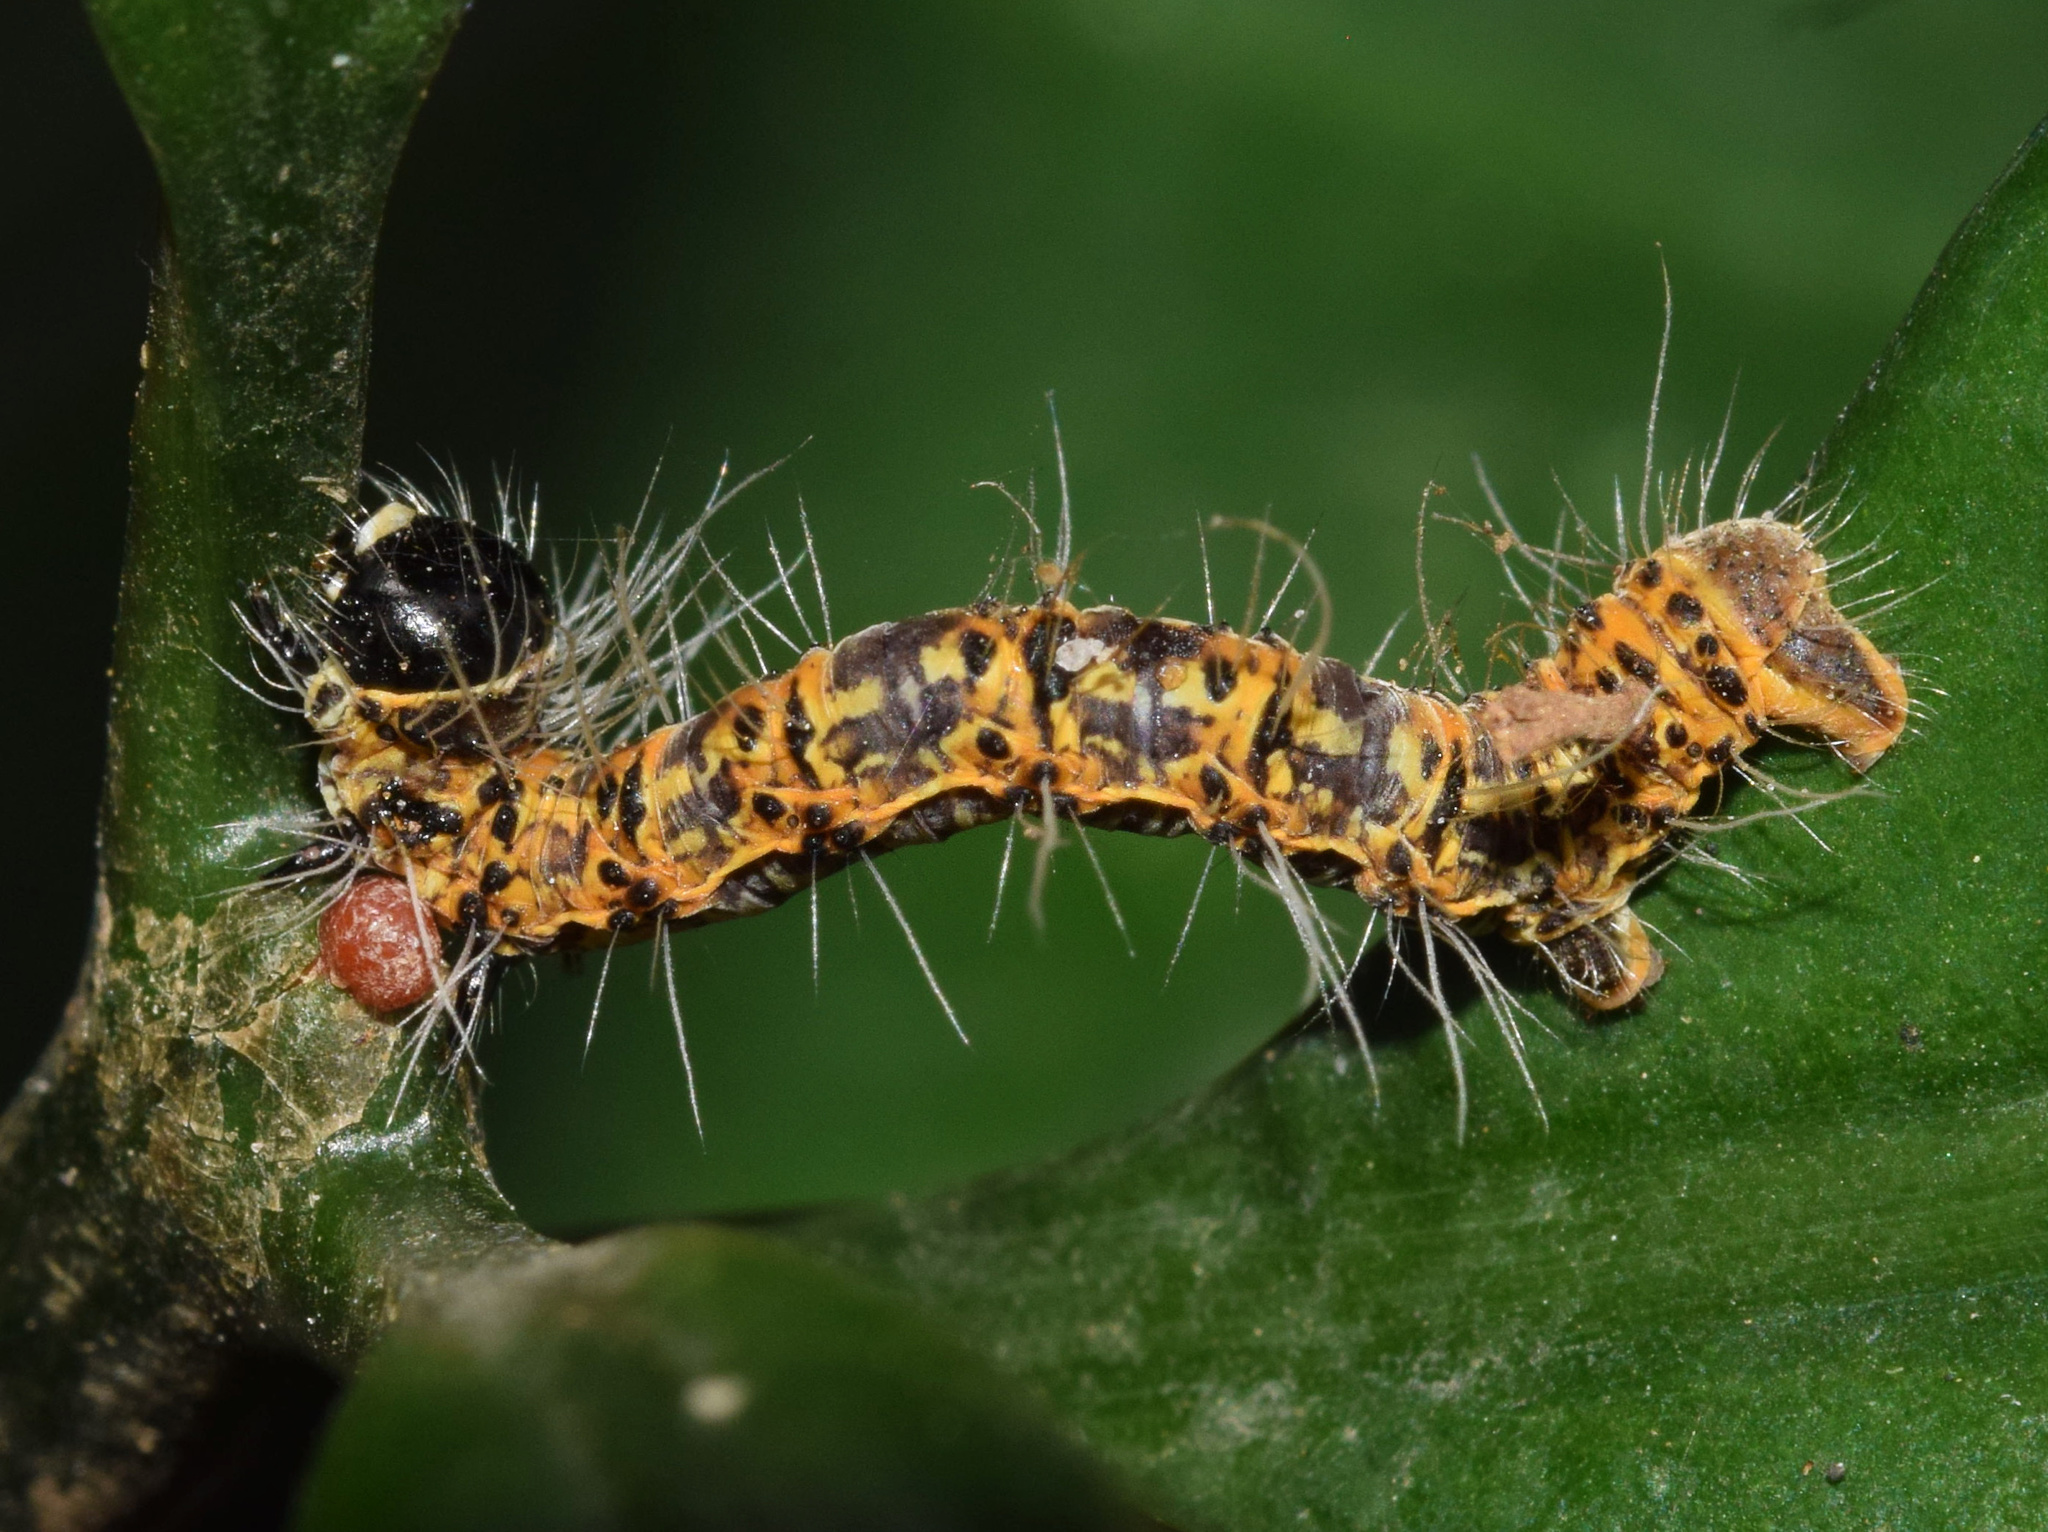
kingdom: Animalia
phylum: Arthropoda
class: Insecta
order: Lepidoptera
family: Geometridae
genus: Zerenopsis
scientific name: Zerenopsis geometrina
